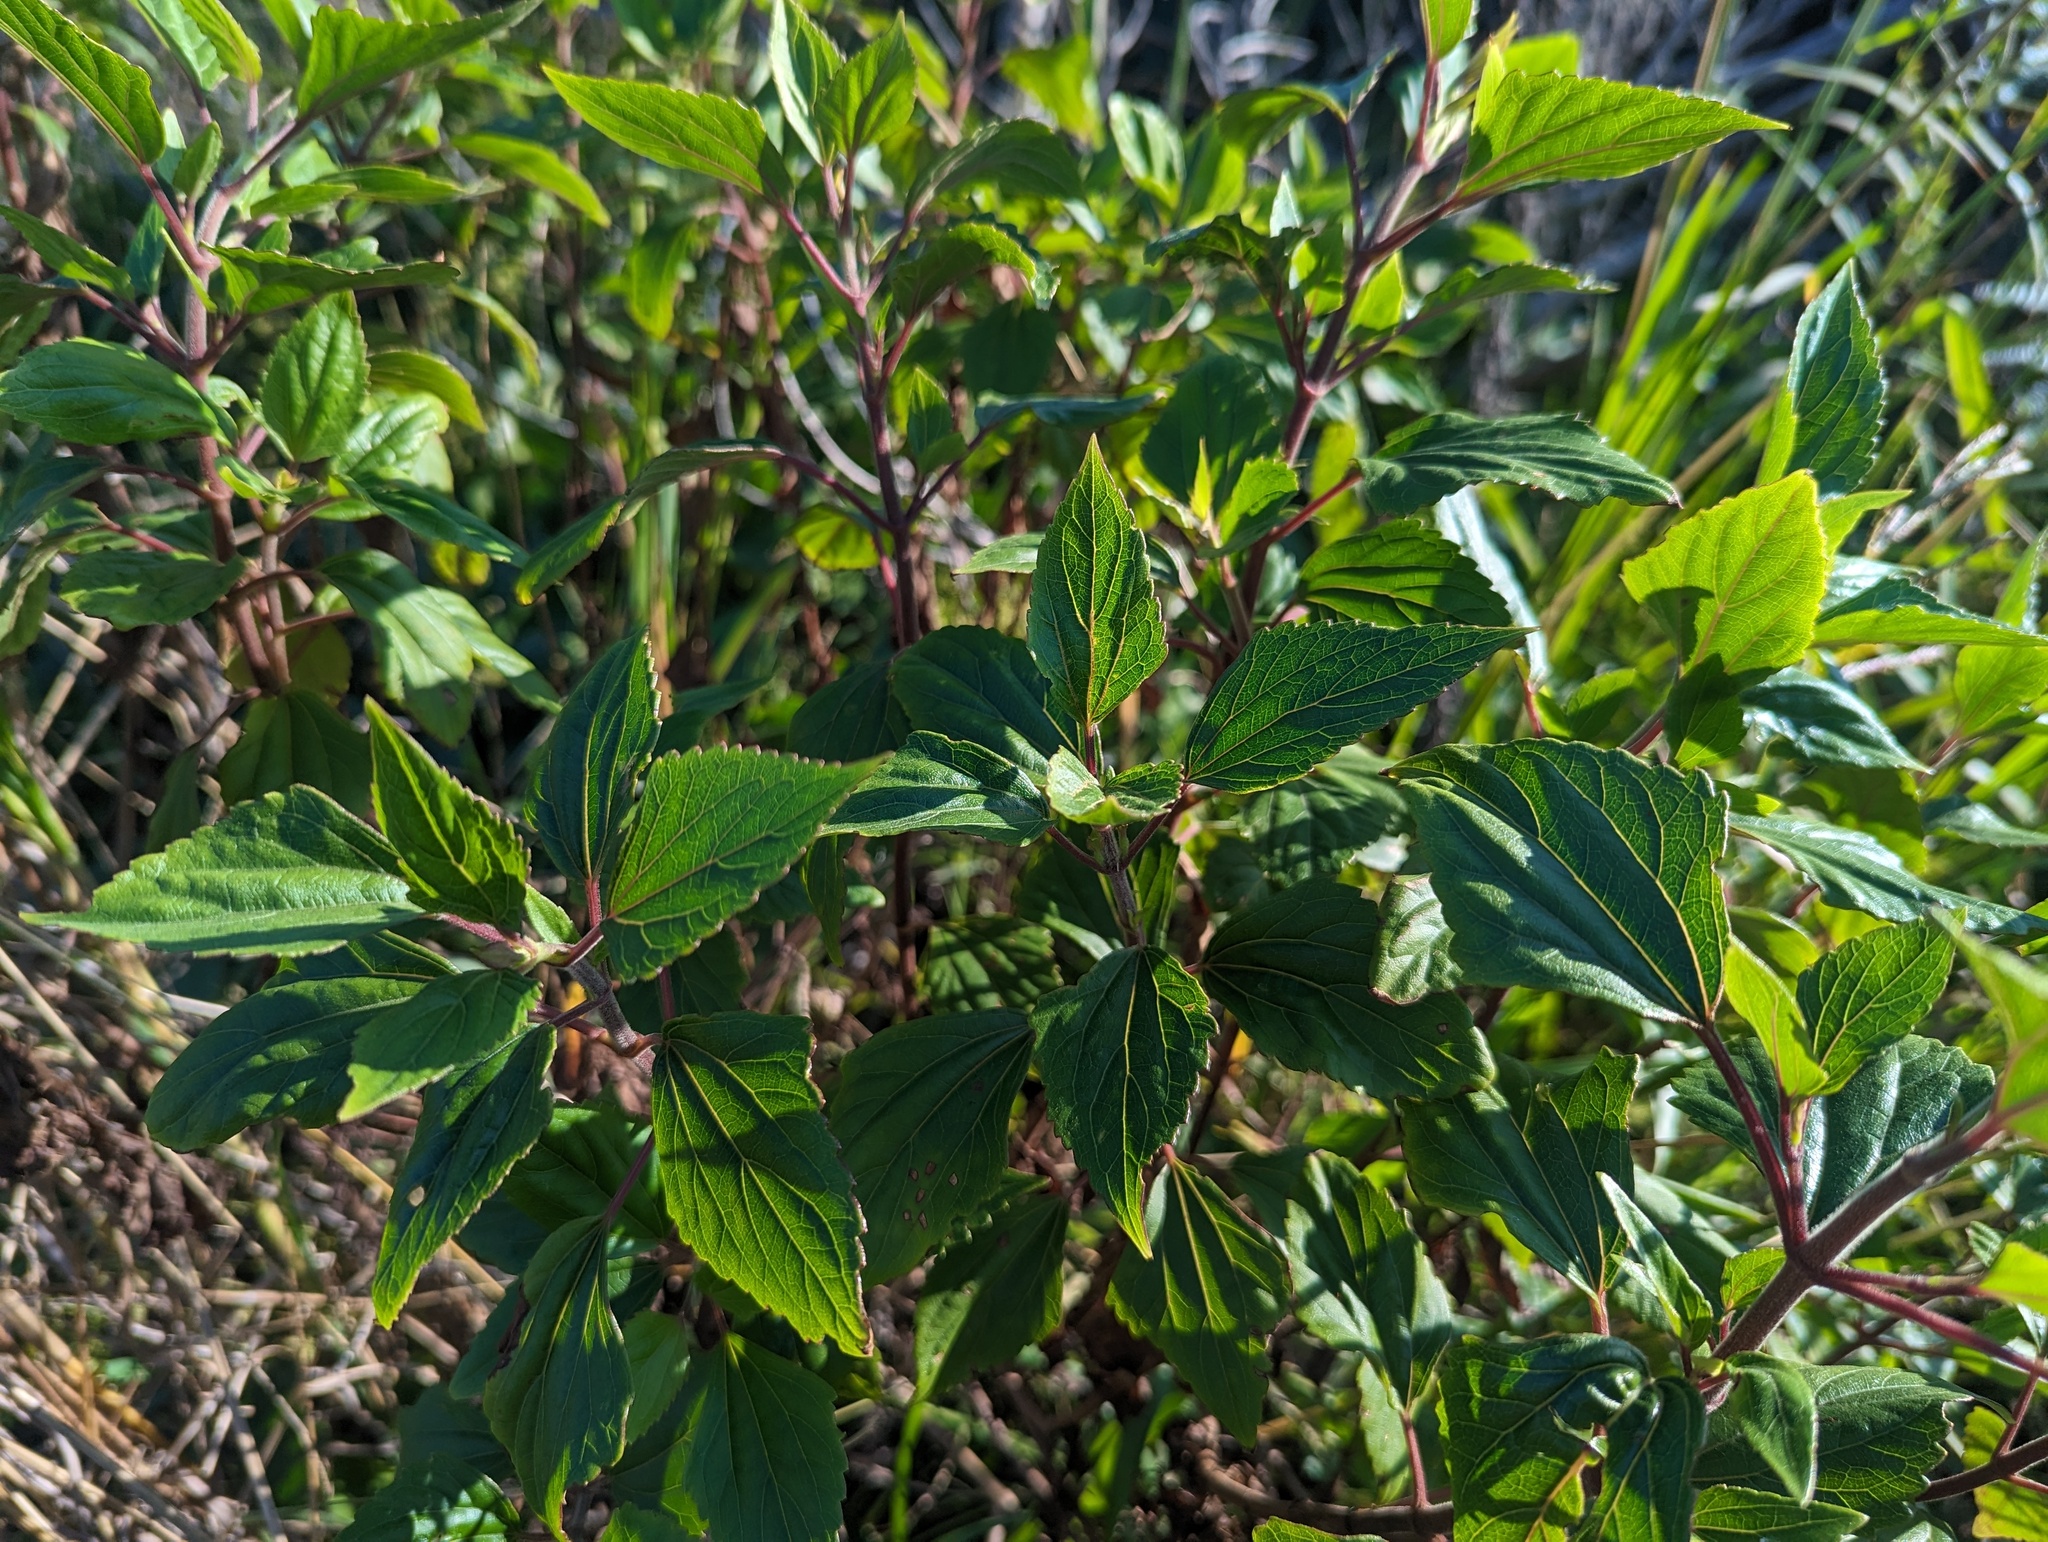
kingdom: Plantae
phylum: Tracheophyta
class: Magnoliopsida
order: Asterales
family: Asteraceae
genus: Ageratina
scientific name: Ageratina adenophora
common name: Sticky snakeroot
